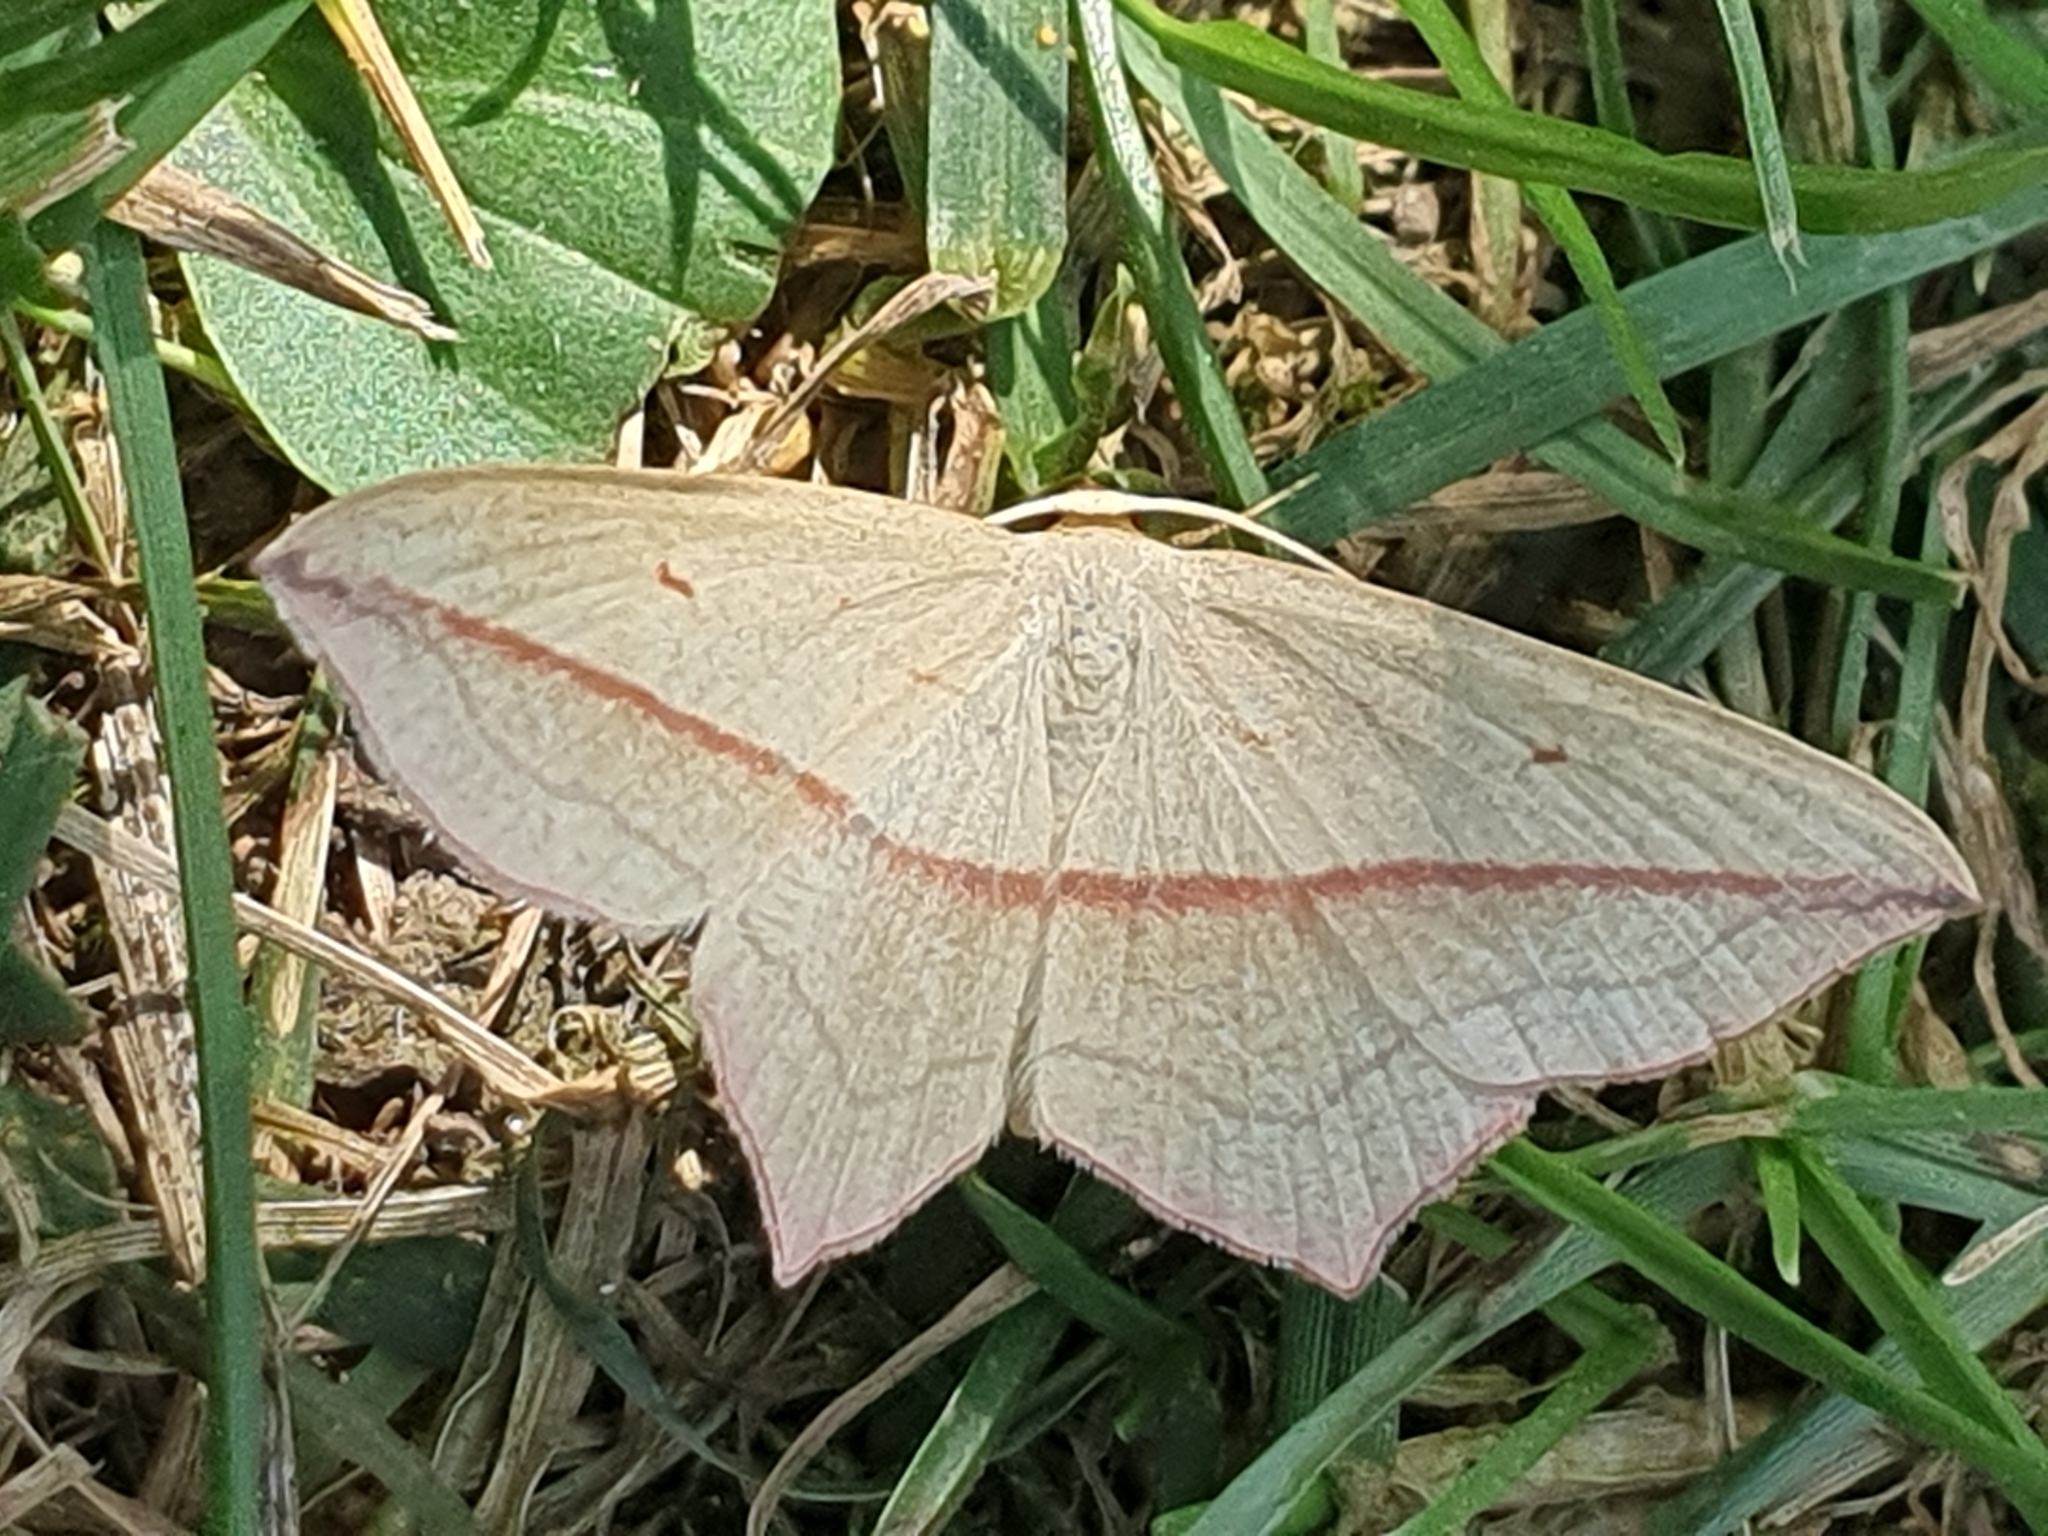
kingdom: Animalia
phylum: Arthropoda
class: Insecta
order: Lepidoptera
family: Geometridae
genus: Timandra
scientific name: Timandra comae
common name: Blood-vein
